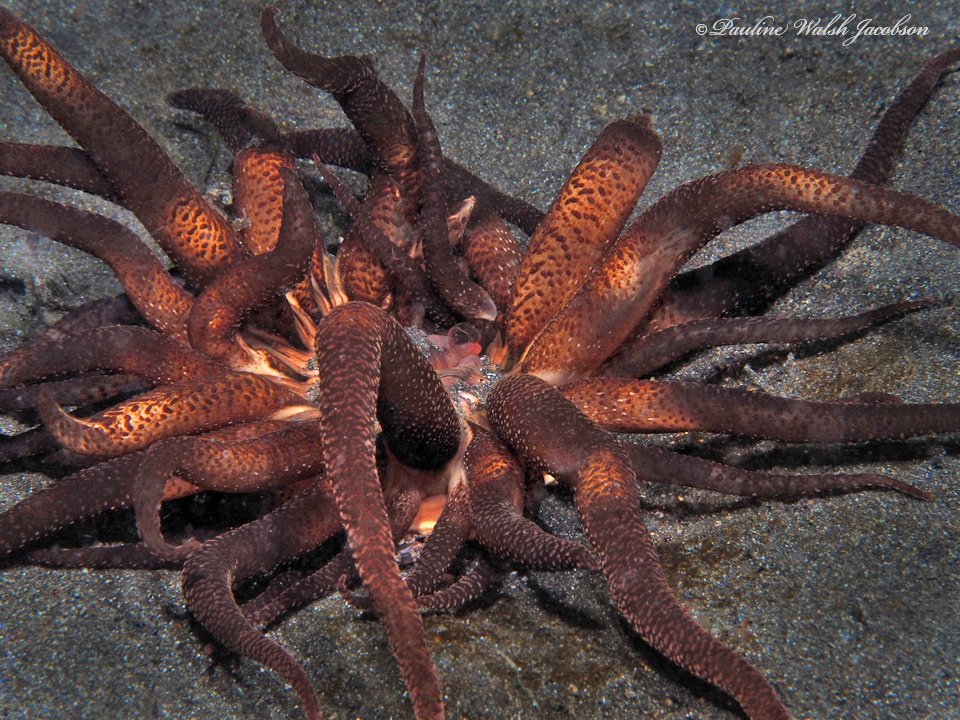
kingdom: Animalia
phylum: Cnidaria
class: Anthozoa
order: Actiniaria
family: Actiniidae
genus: Dofleinia
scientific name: Dofleinia armata
